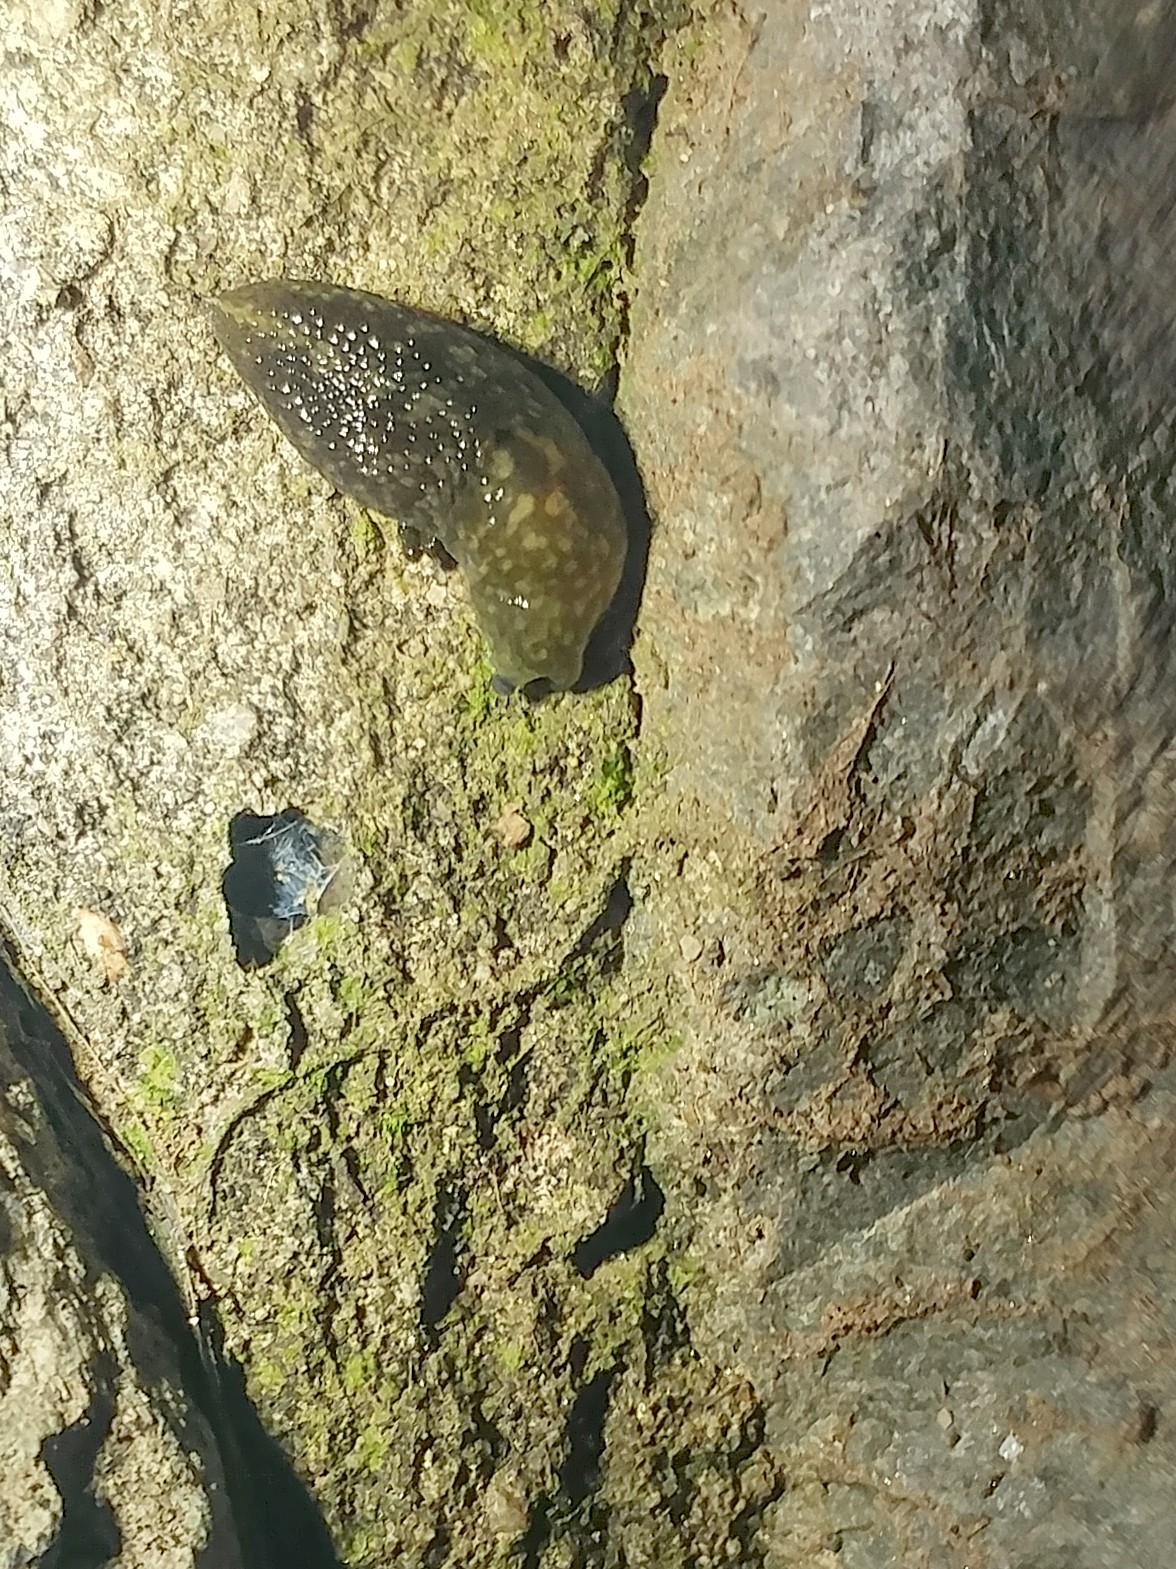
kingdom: Animalia
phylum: Mollusca
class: Gastropoda
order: Stylommatophora
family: Limacidae
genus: Limacus
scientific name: Limacus flavus
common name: Yellow gardenslug
